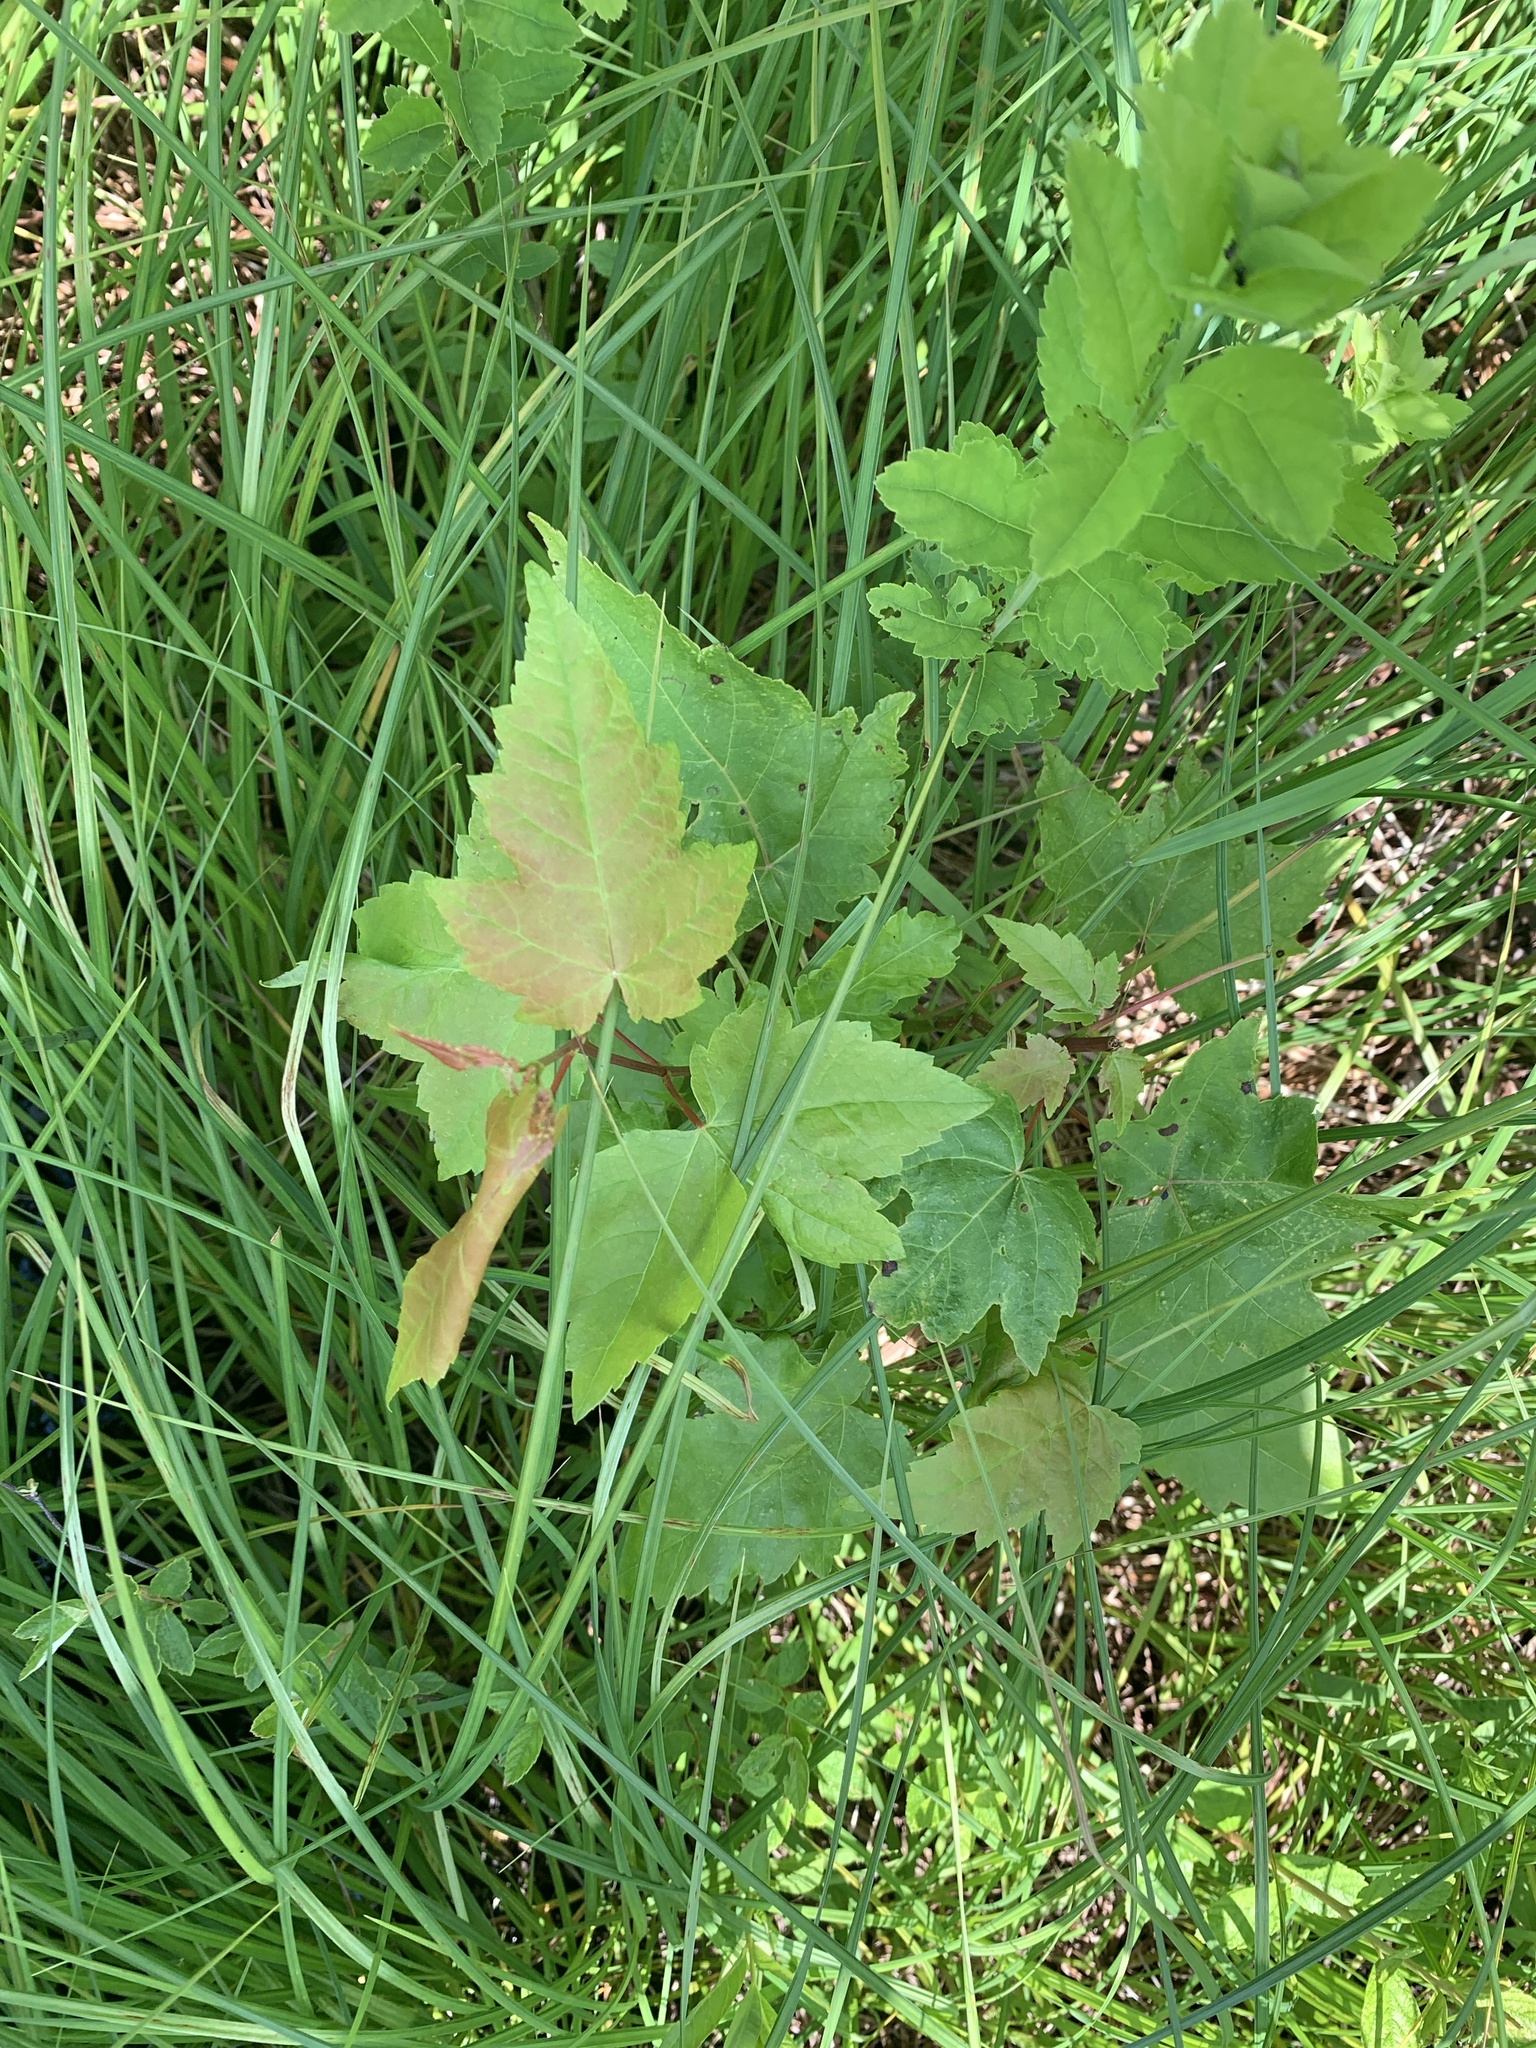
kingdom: Plantae
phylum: Tracheophyta
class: Magnoliopsida
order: Sapindales
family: Sapindaceae
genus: Acer
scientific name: Acer rubrum
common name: Red maple
